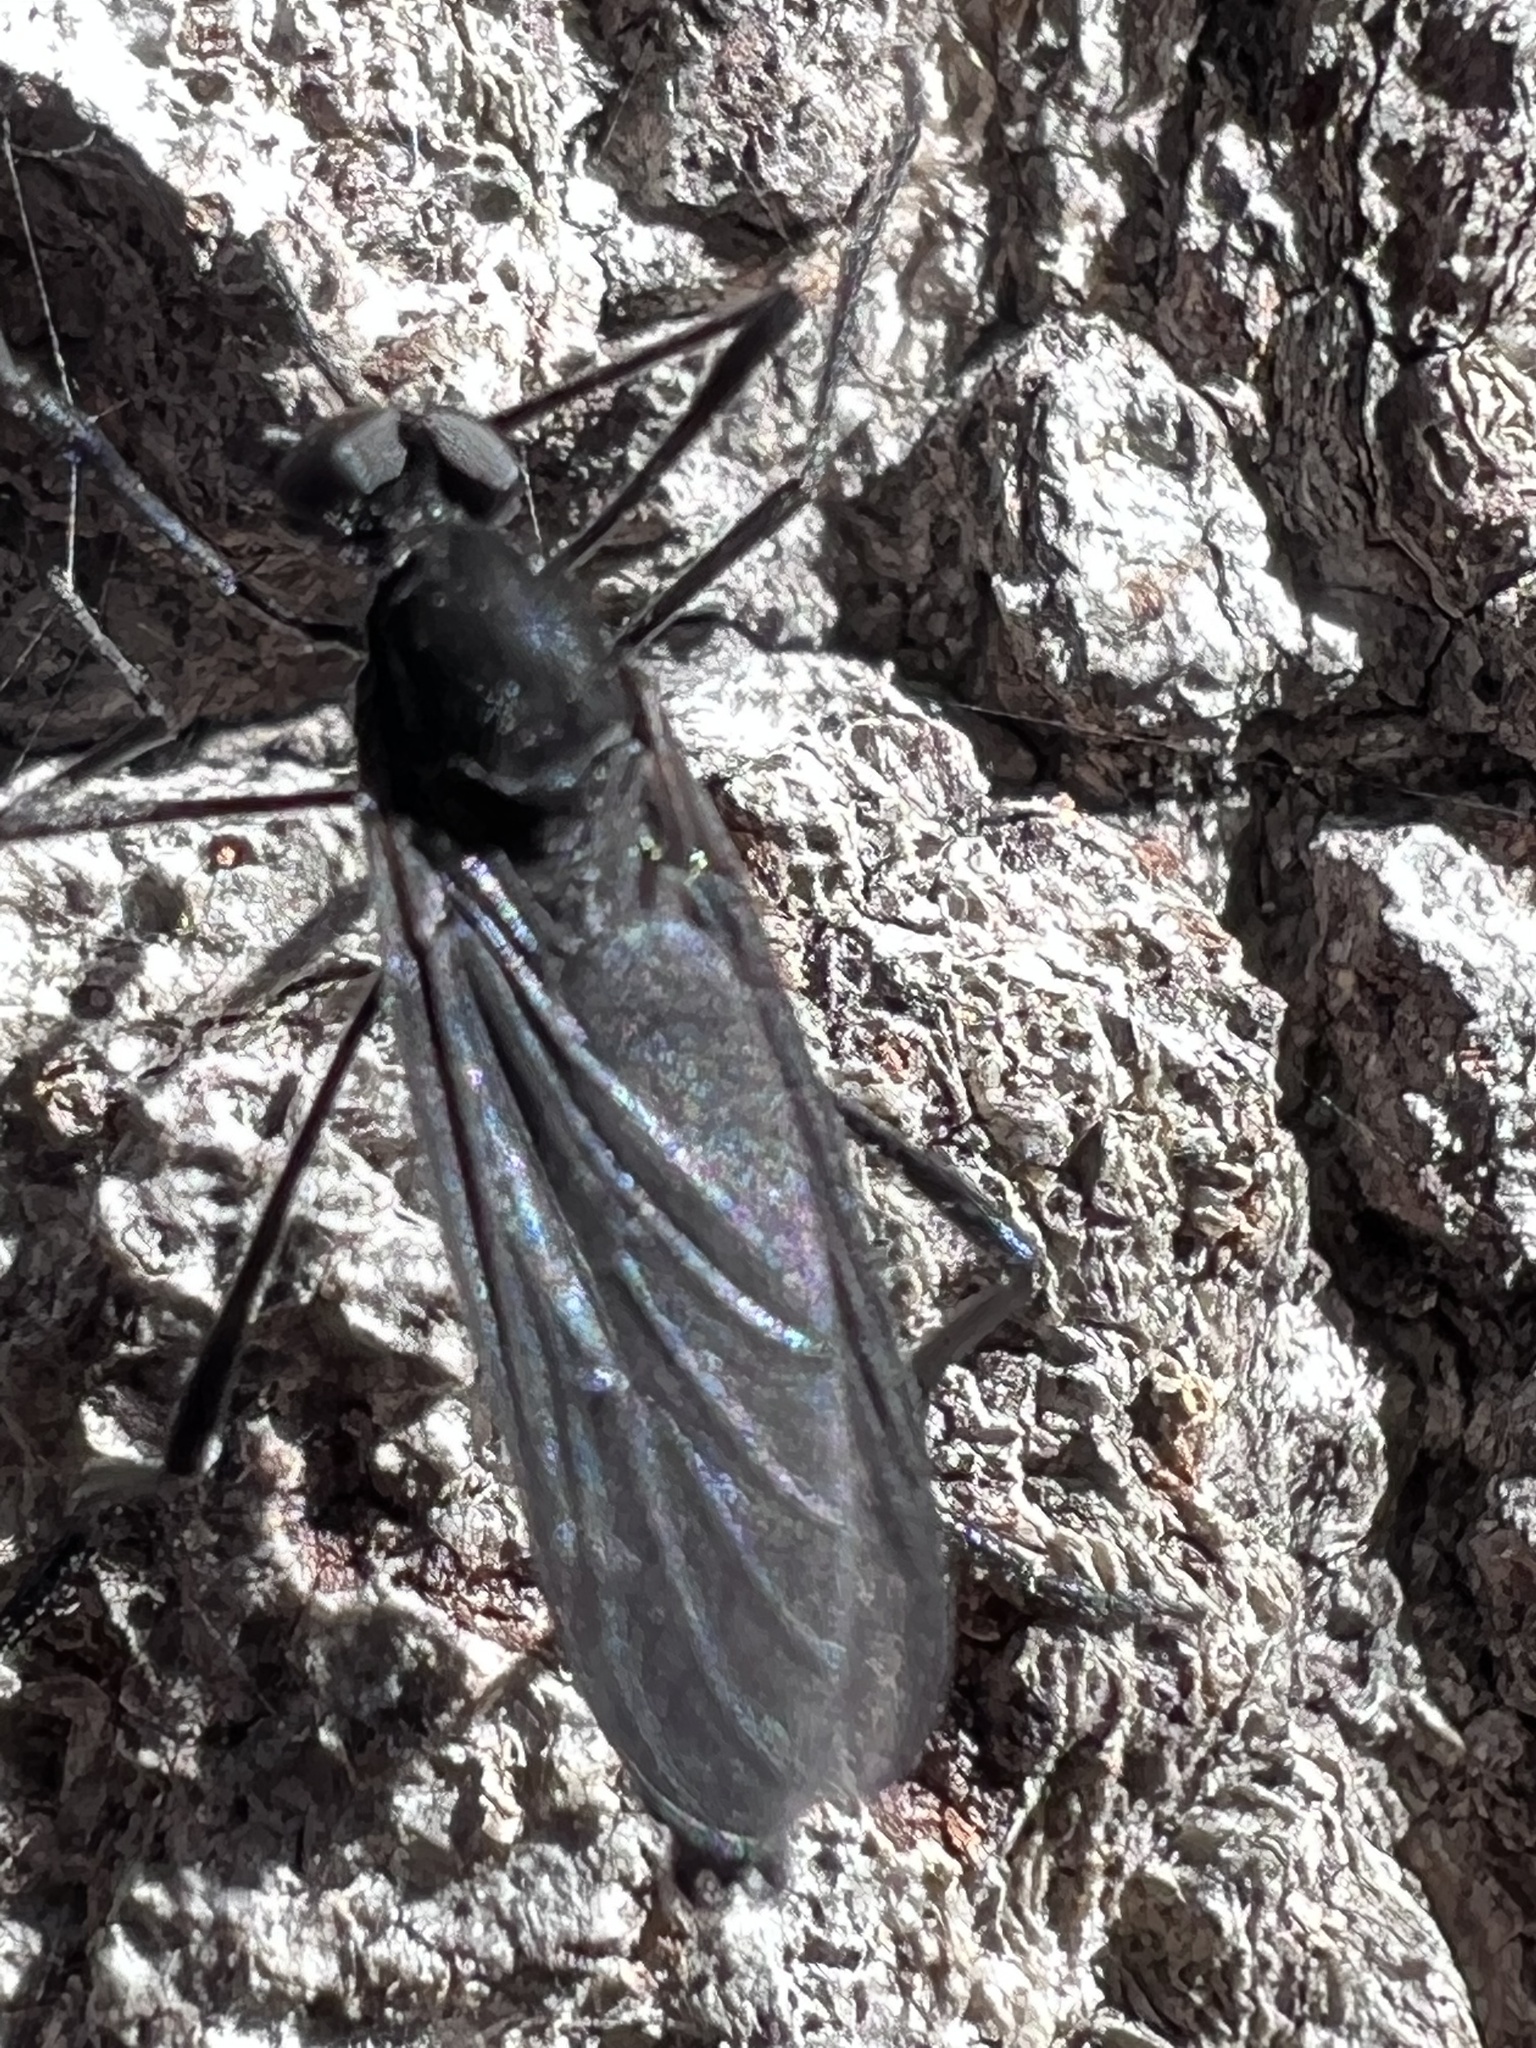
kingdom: Animalia
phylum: Arthropoda
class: Insecta
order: Diptera
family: Bibionidae
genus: Penthetria
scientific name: Penthetria heteroptera
